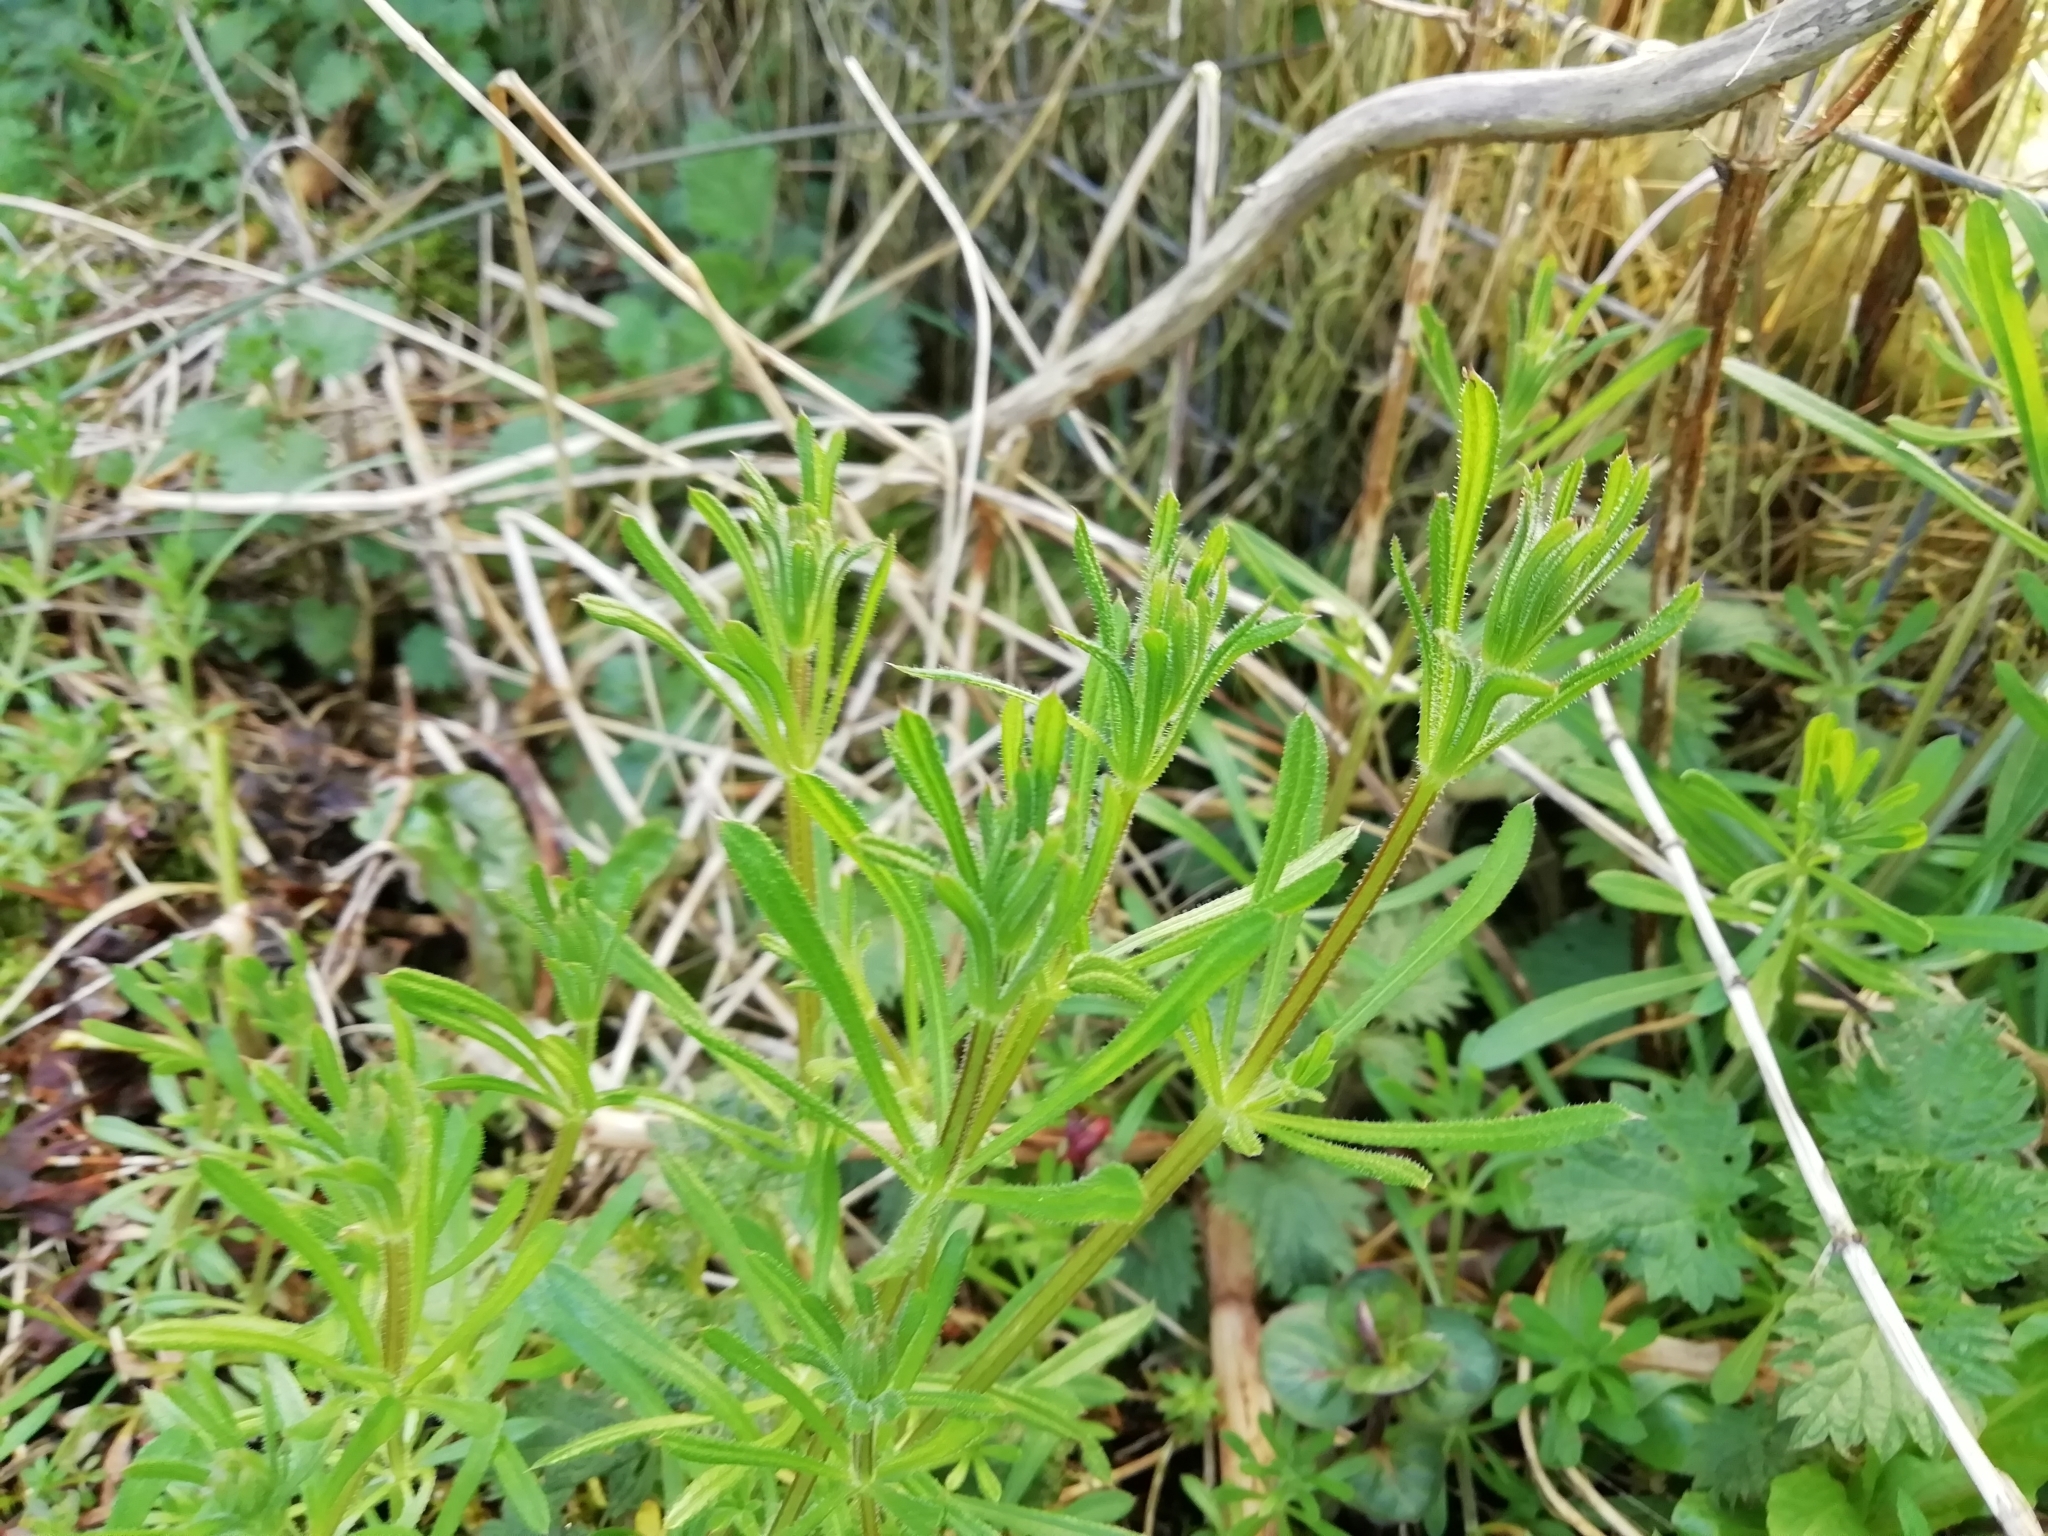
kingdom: Plantae
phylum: Tracheophyta
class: Magnoliopsida
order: Gentianales
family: Rubiaceae
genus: Galium
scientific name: Galium aparine
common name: Cleavers
